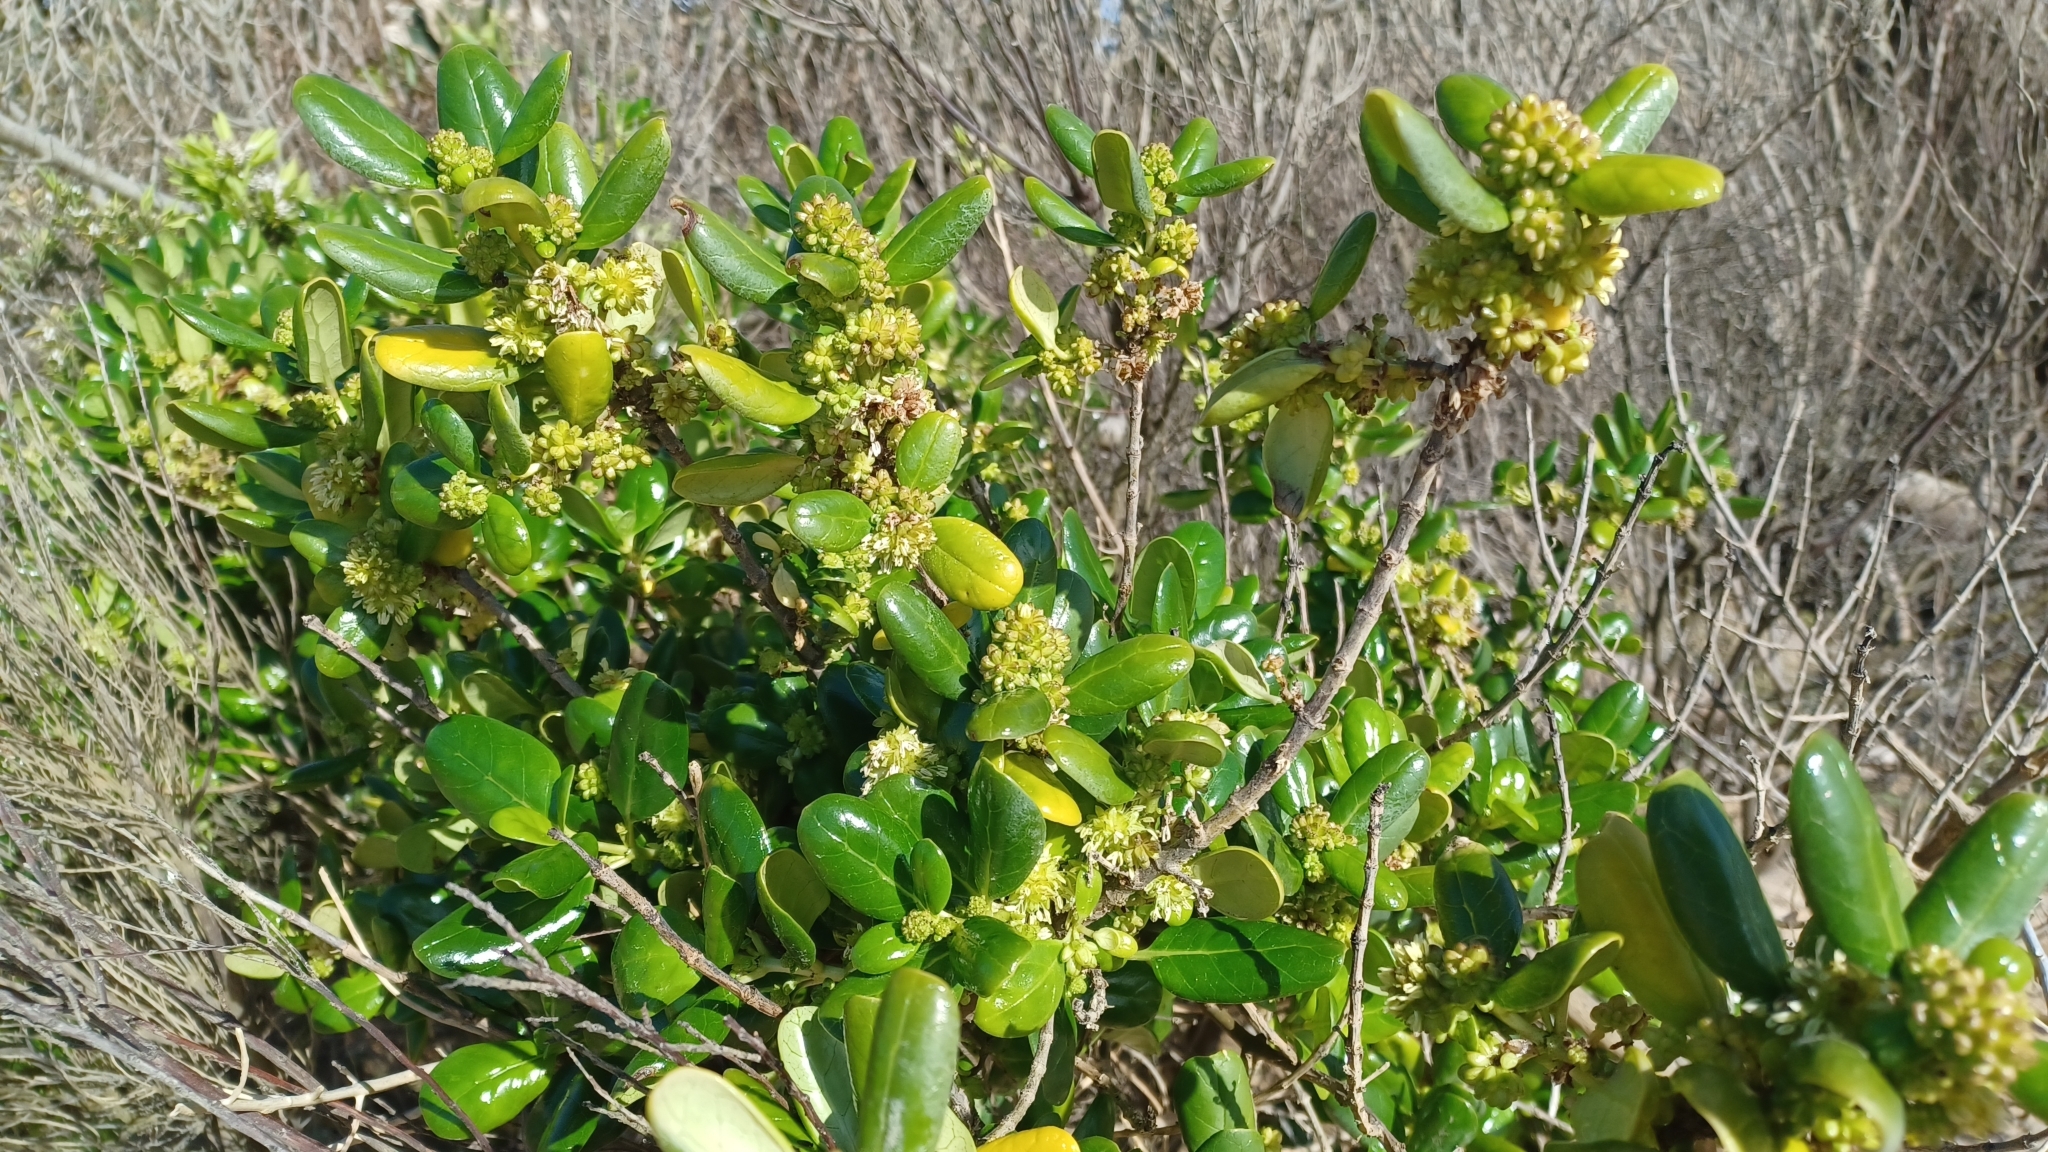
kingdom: Plantae
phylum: Tracheophyta
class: Magnoliopsida
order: Gentianales
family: Rubiaceae
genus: Coprosma
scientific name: Coprosma repens
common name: Tree bedstraw
